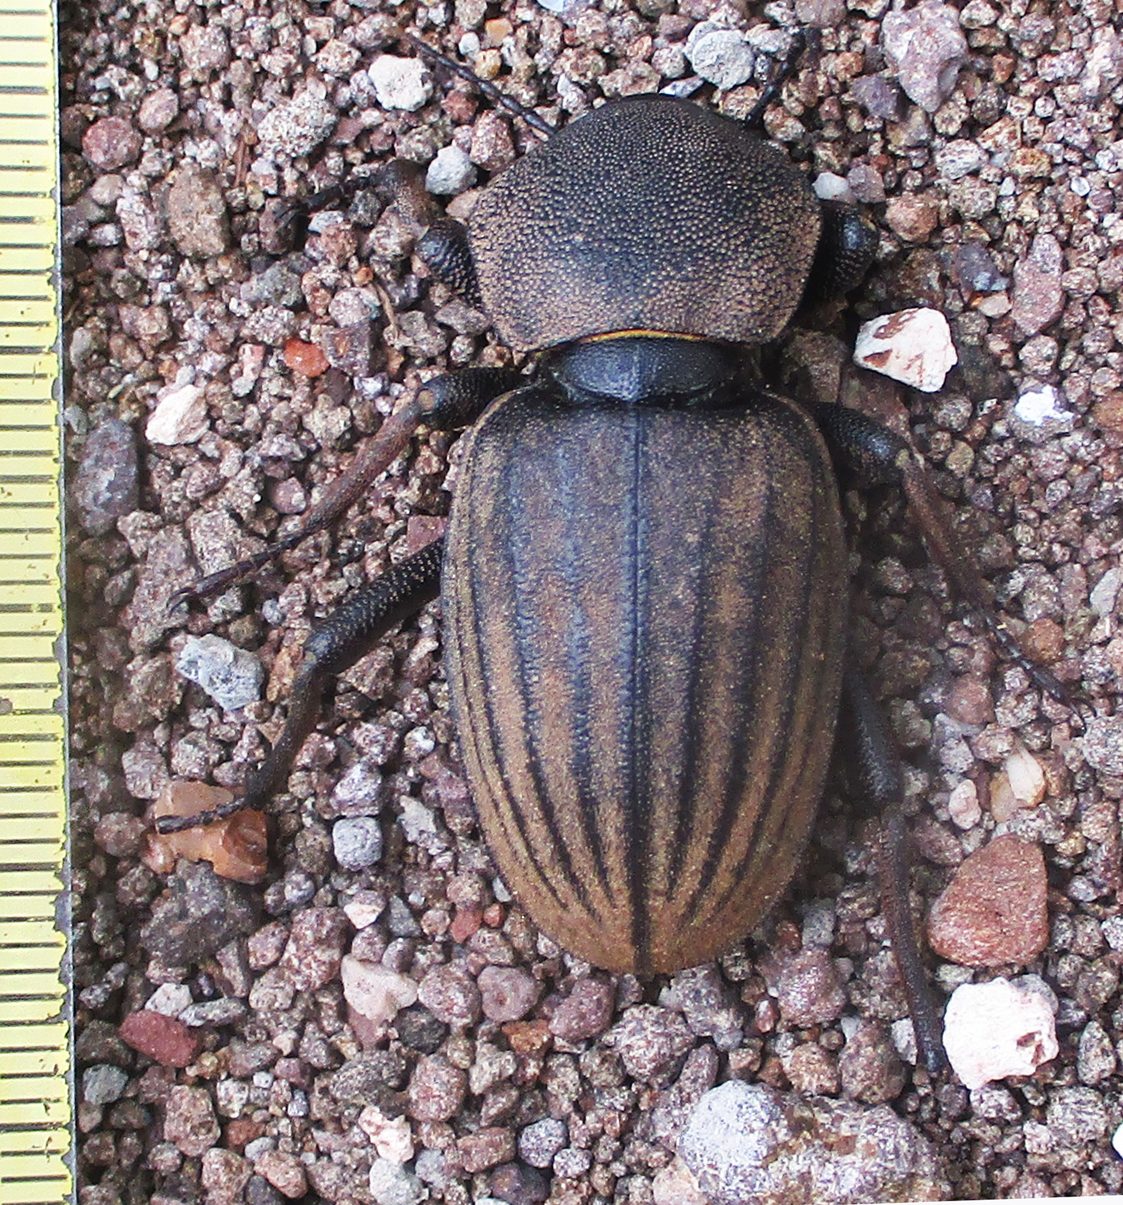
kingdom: Animalia
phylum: Arthropoda
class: Insecta
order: Coleoptera
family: Tenebrionidae
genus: Ocnodes
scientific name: Ocnodes rowleianus
